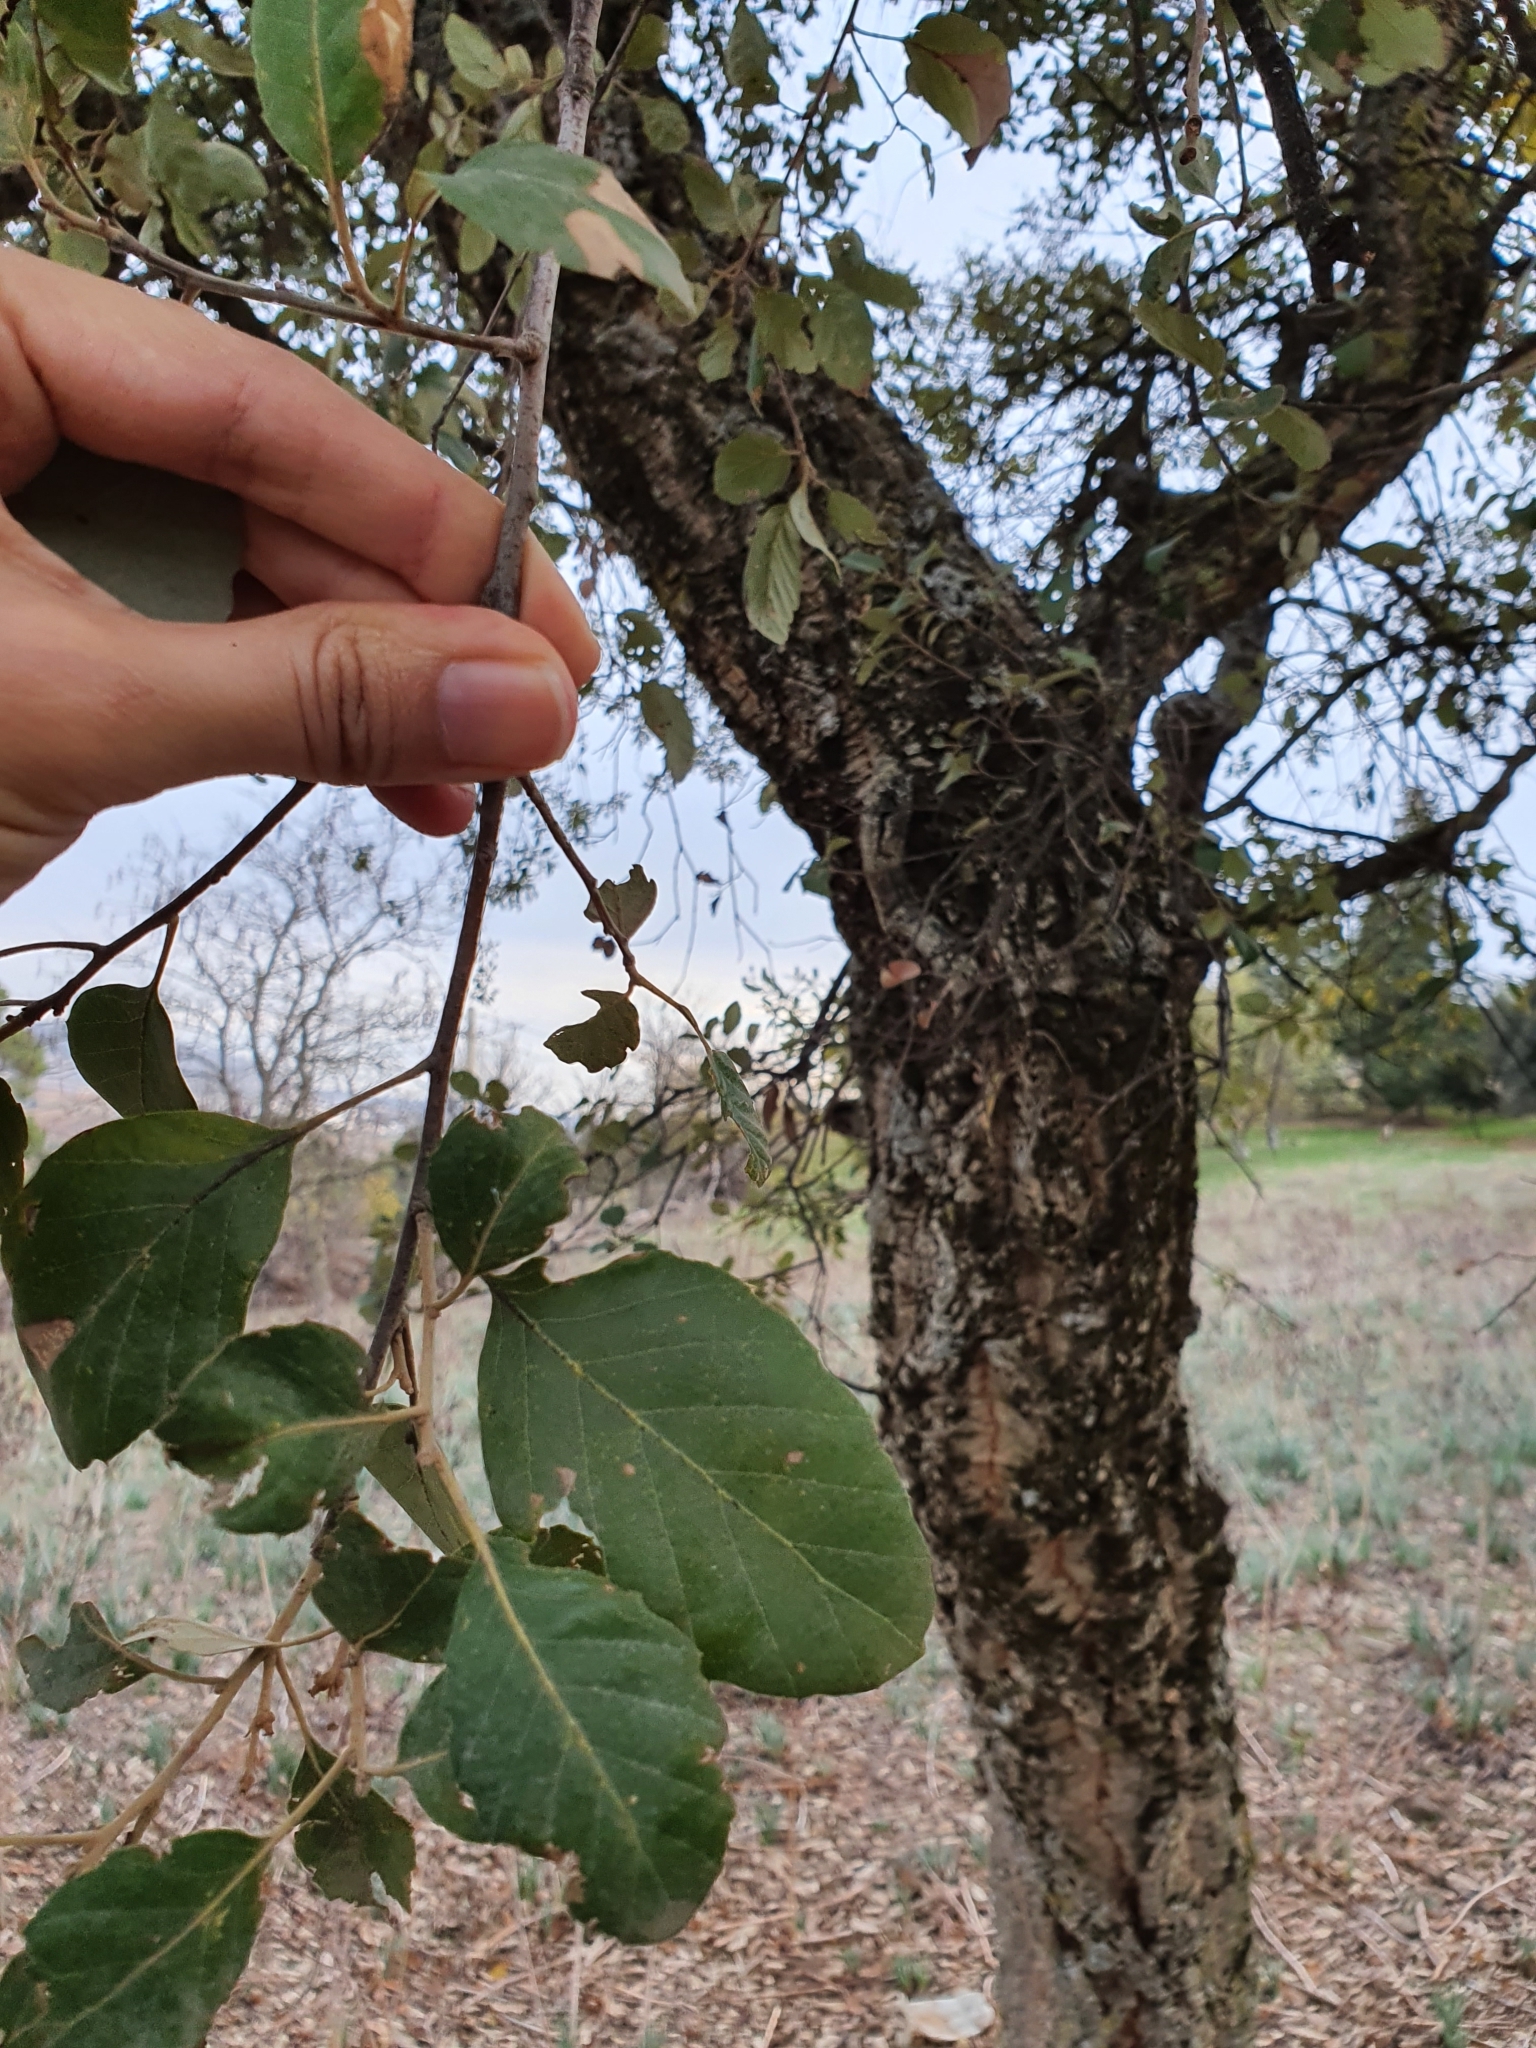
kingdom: Plantae
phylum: Tracheophyta
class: Magnoliopsida
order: Fagales
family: Fagaceae
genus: Quercus
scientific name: Quercus suber
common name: Cork oak
